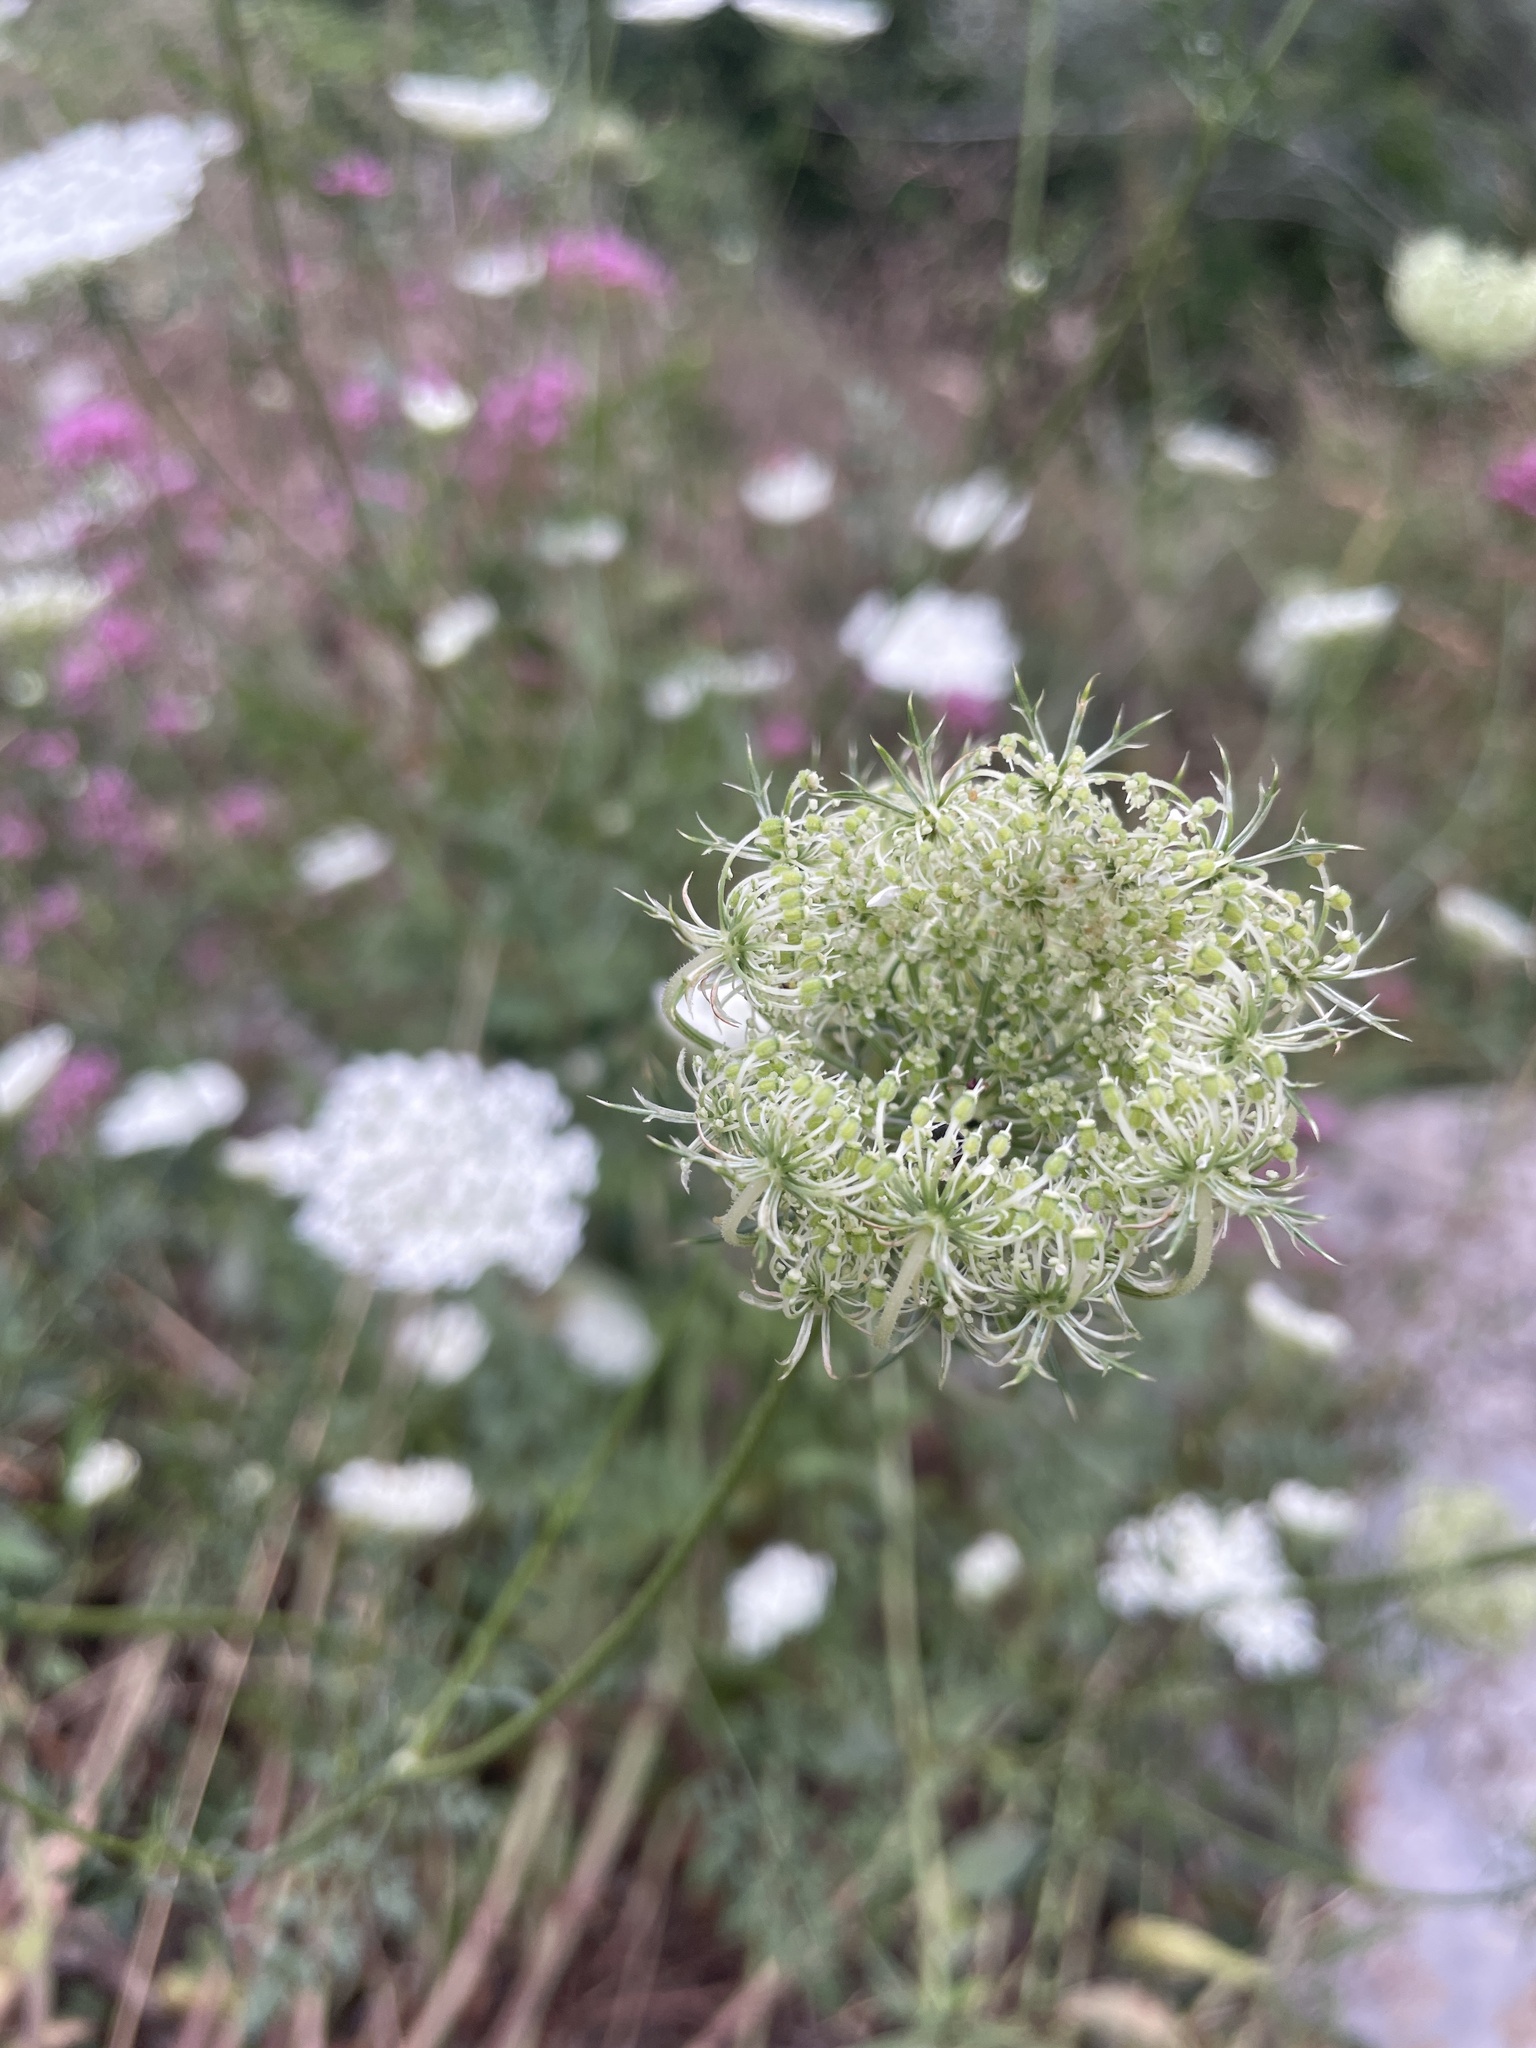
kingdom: Plantae
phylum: Tracheophyta
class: Magnoliopsida
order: Apiales
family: Apiaceae
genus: Daucus
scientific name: Daucus carota
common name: Wild carrot
